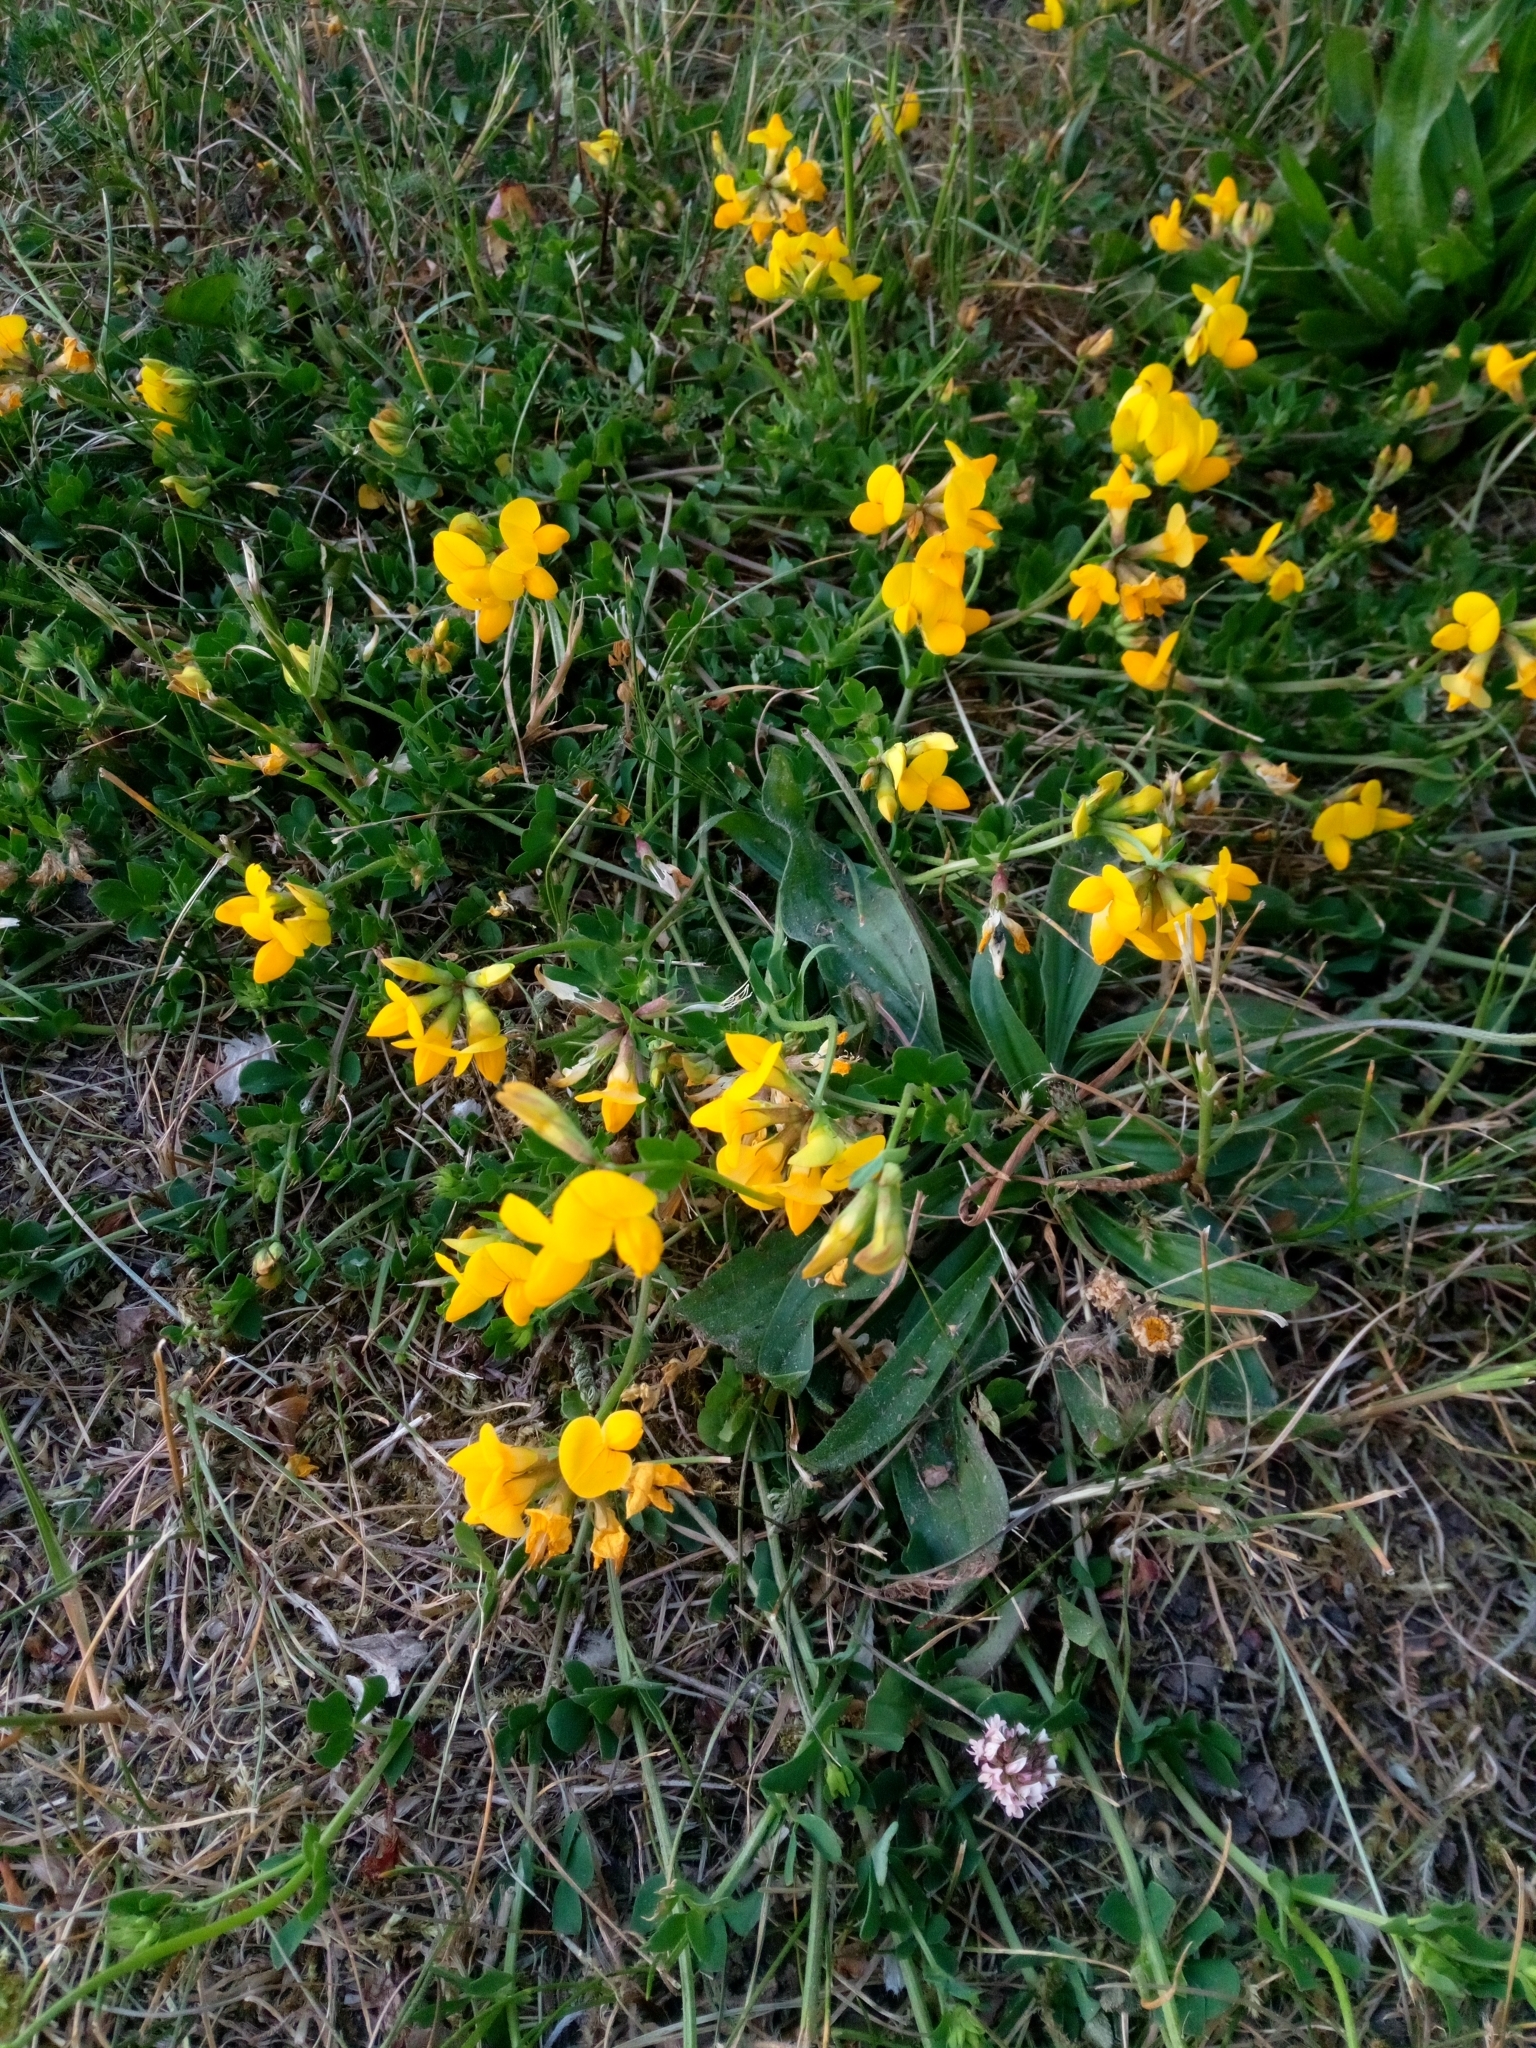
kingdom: Plantae
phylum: Tracheophyta
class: Magnoliopsida
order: Fabales
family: Fabaceae
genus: Lotus
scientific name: Lotus corniculatus
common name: Common bird's-foot-trefoil
